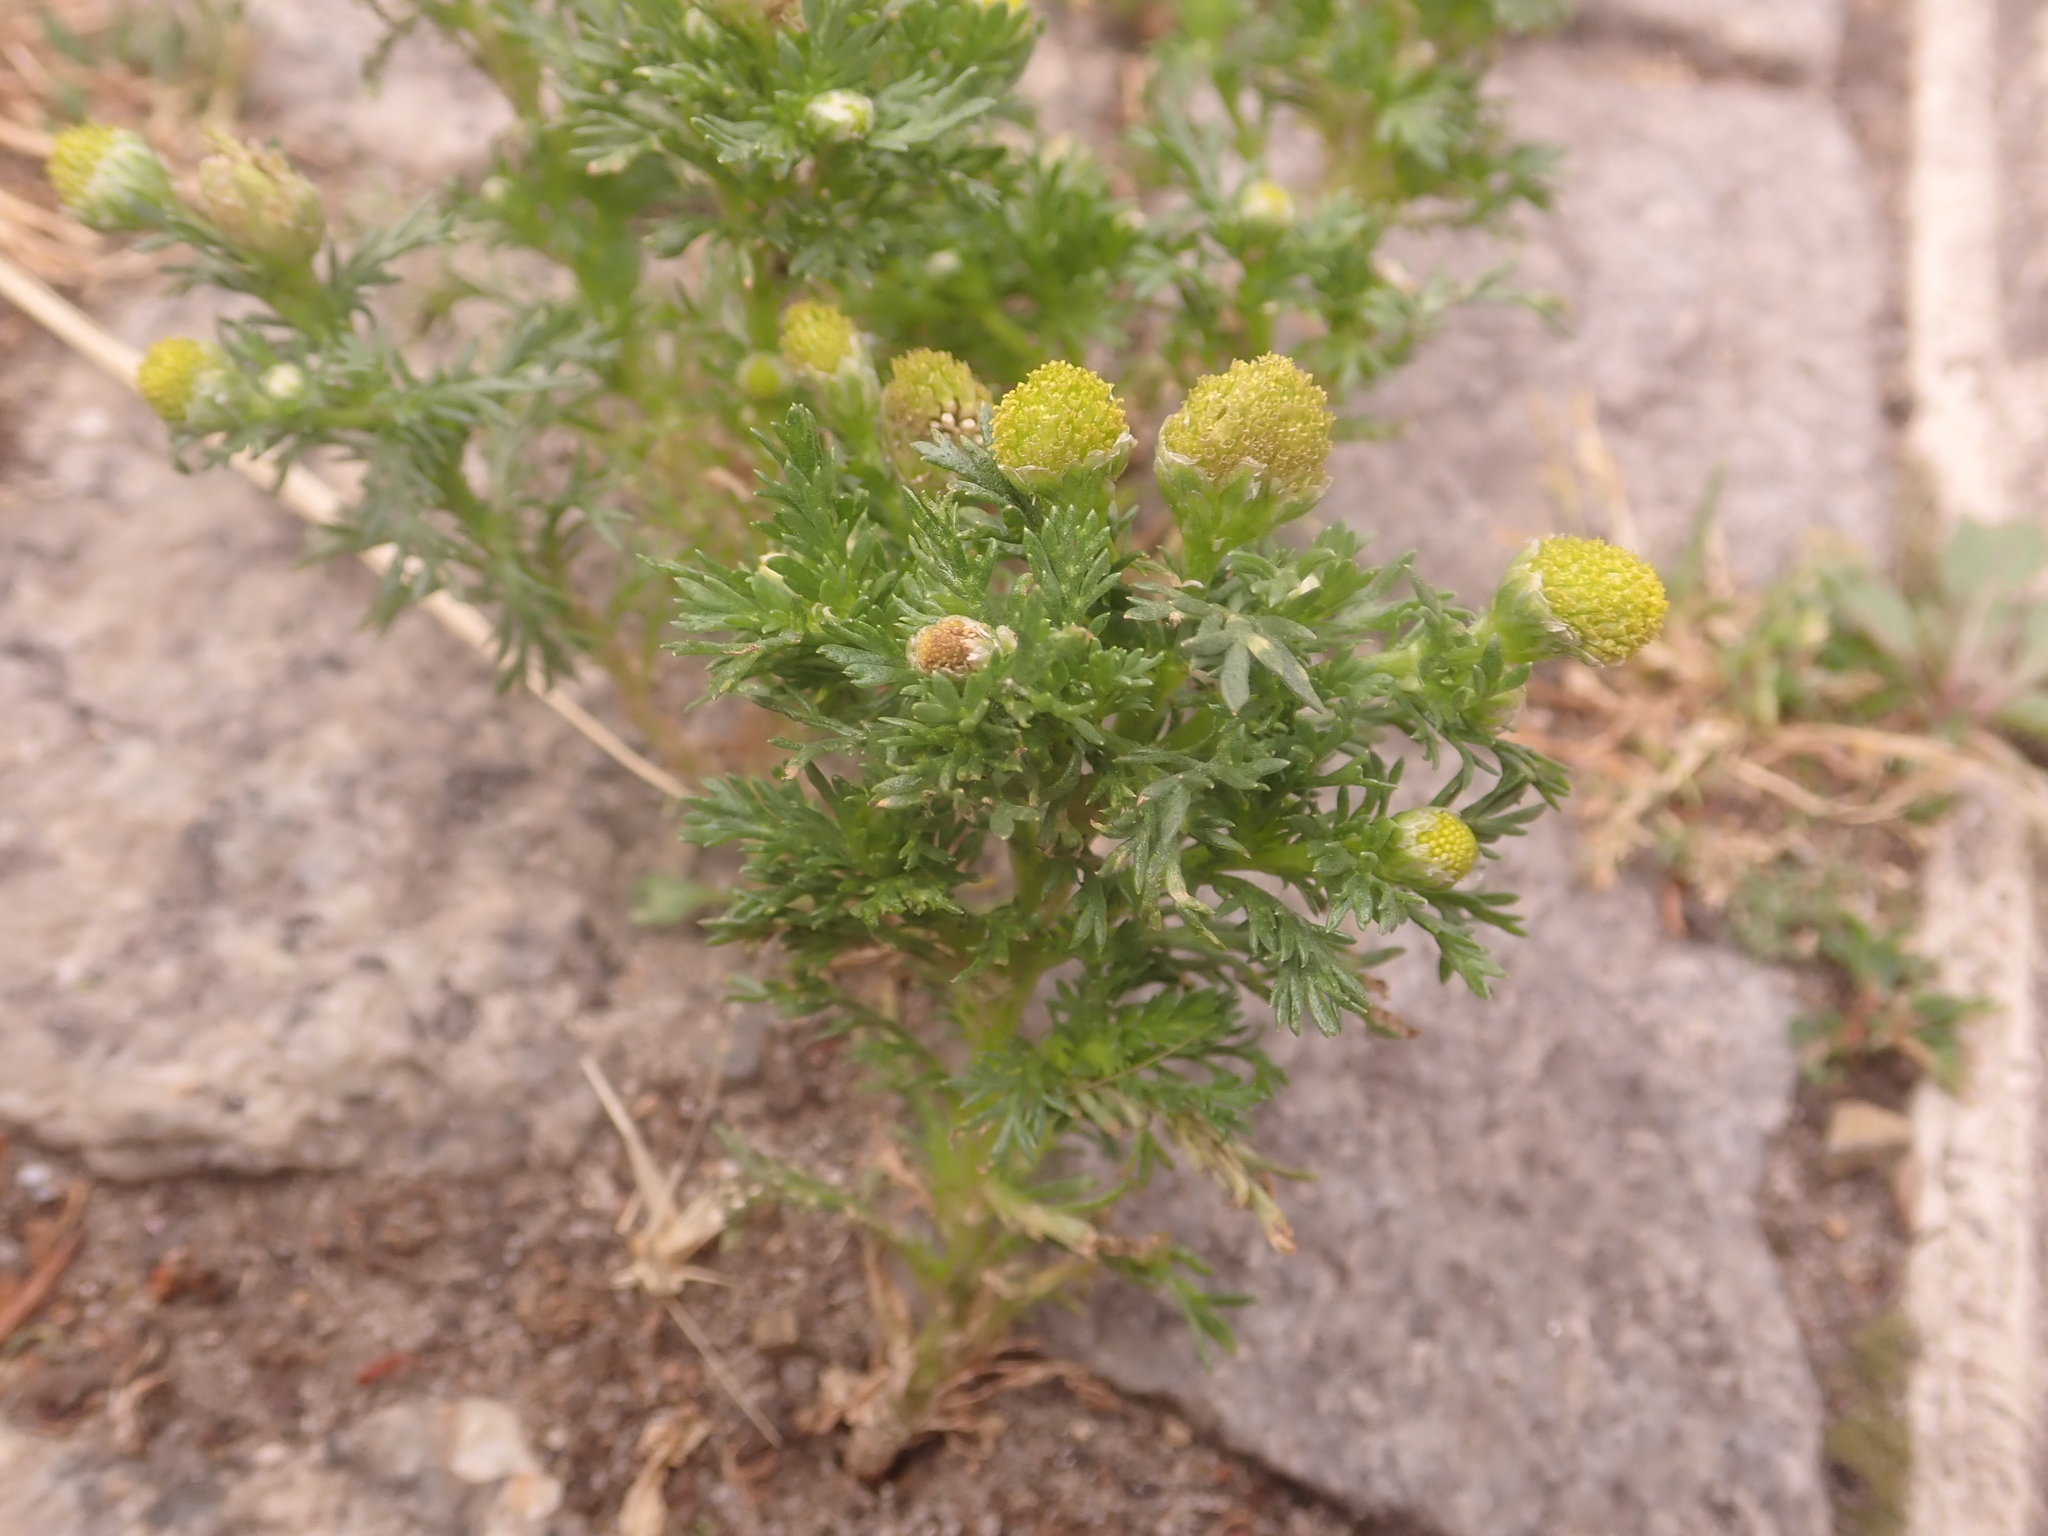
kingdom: Plantae
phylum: Tracheophyta
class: Magnoliopsida
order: Asterales
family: Asteraceae
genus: Matricaria
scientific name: Matricaria discoidea
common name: Disc mayweed
